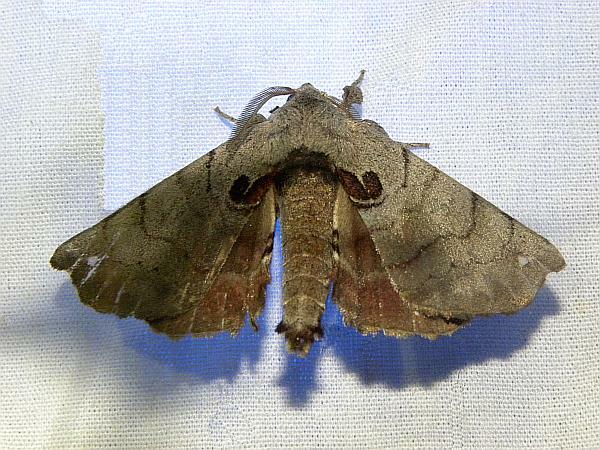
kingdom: Animalia
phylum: Arthropoda
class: Insecta
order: Lepidoptera
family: Apatelodidae
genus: Hygrochroa
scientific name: Hygrochroa Apatelodes torrefacta
